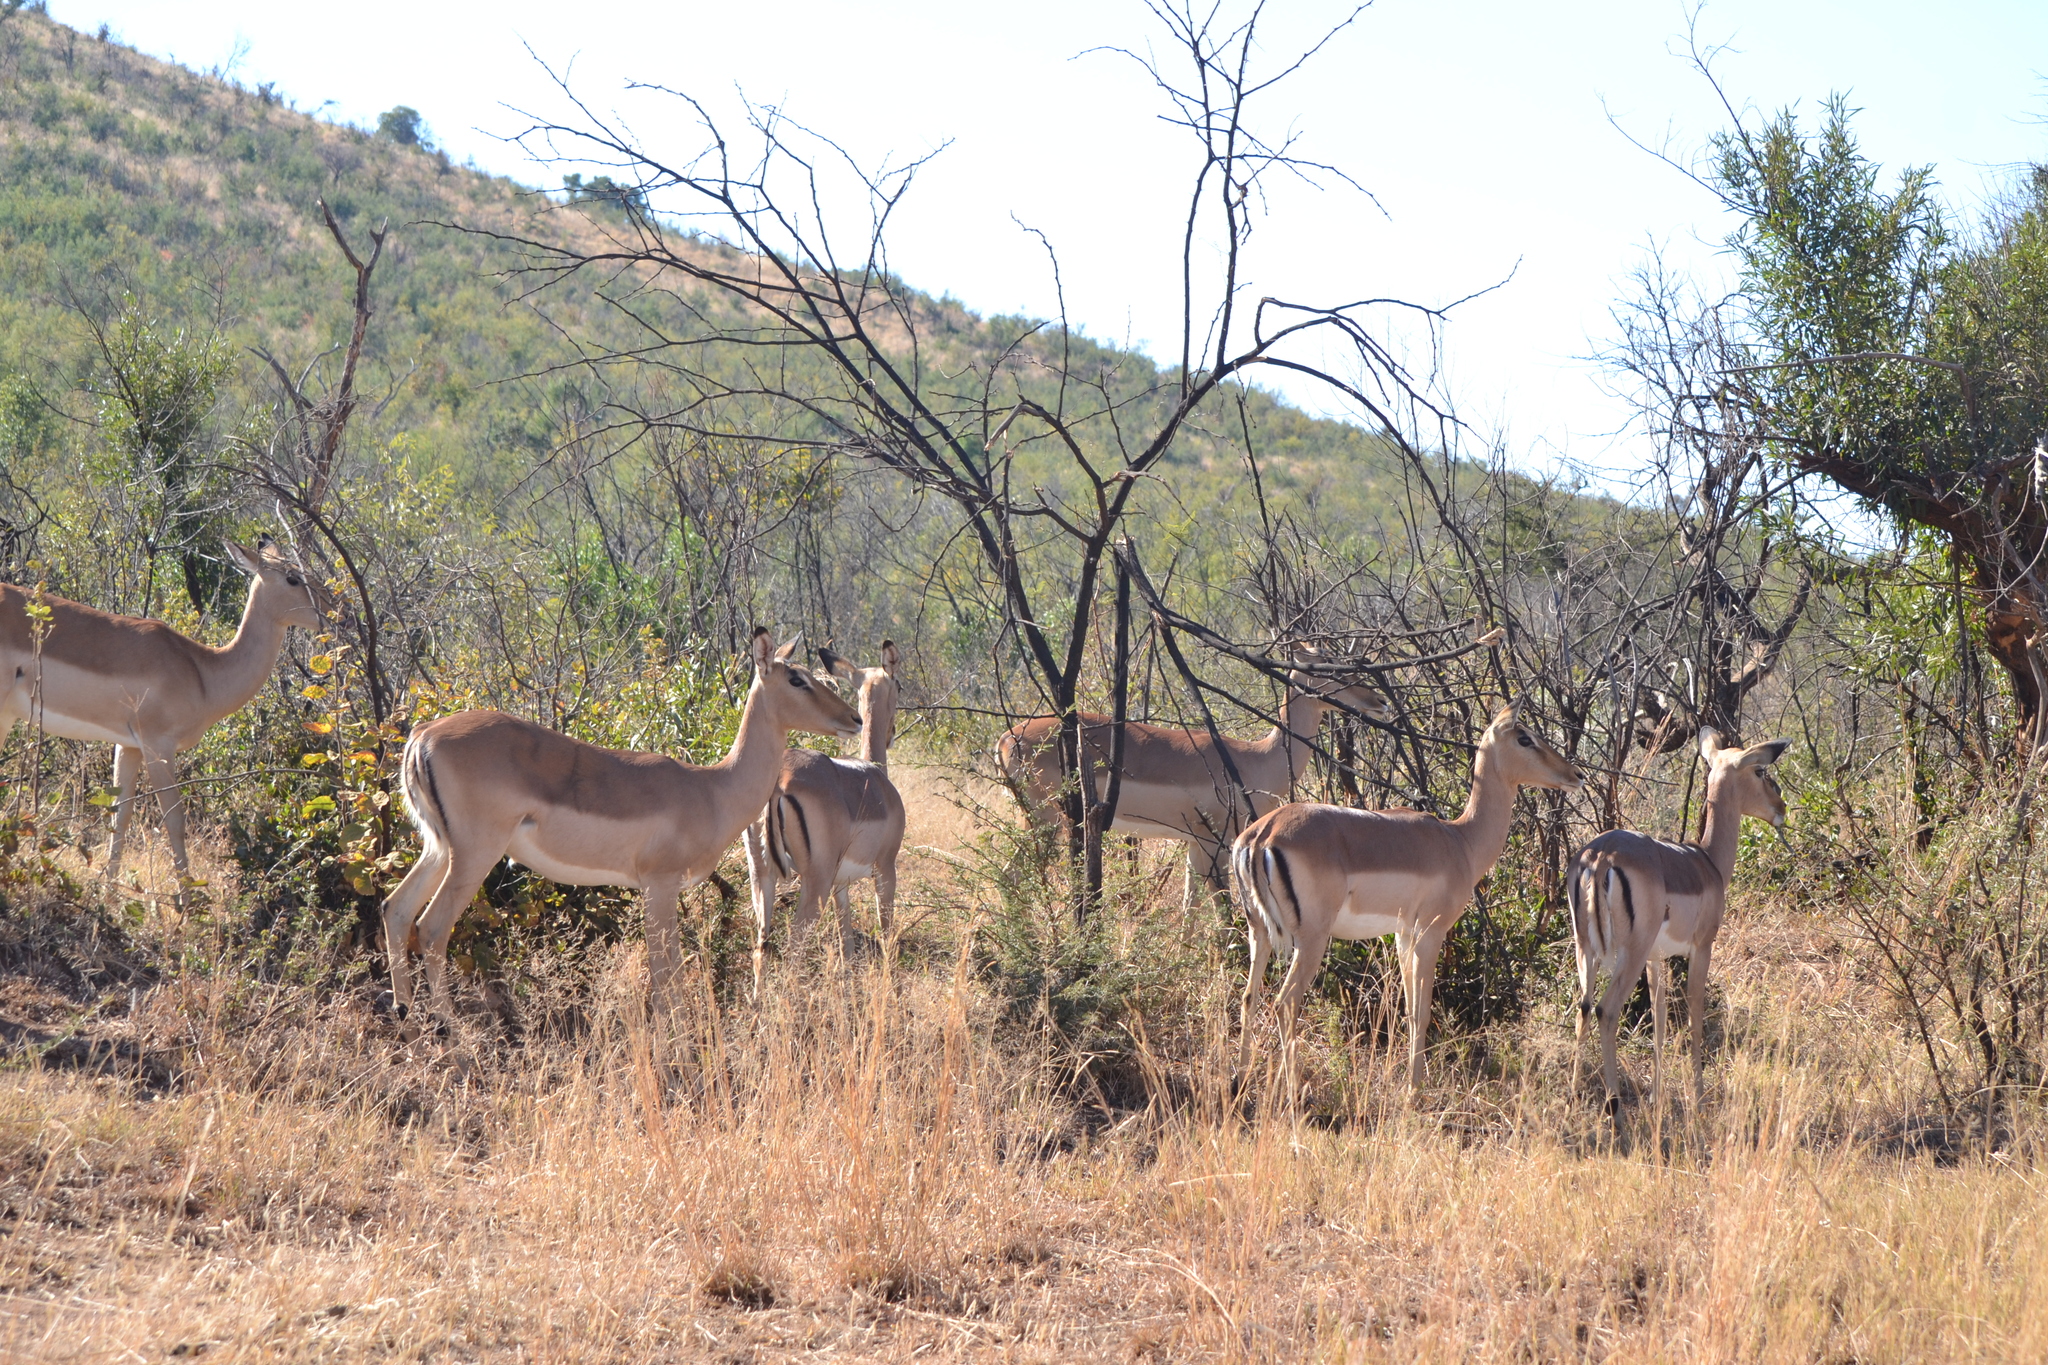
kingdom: Animalia
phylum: Chordata
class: Mammalia
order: Artiodactyla
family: Bovidae
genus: Aepyceros
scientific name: Aepyceros melampus
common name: Impala
